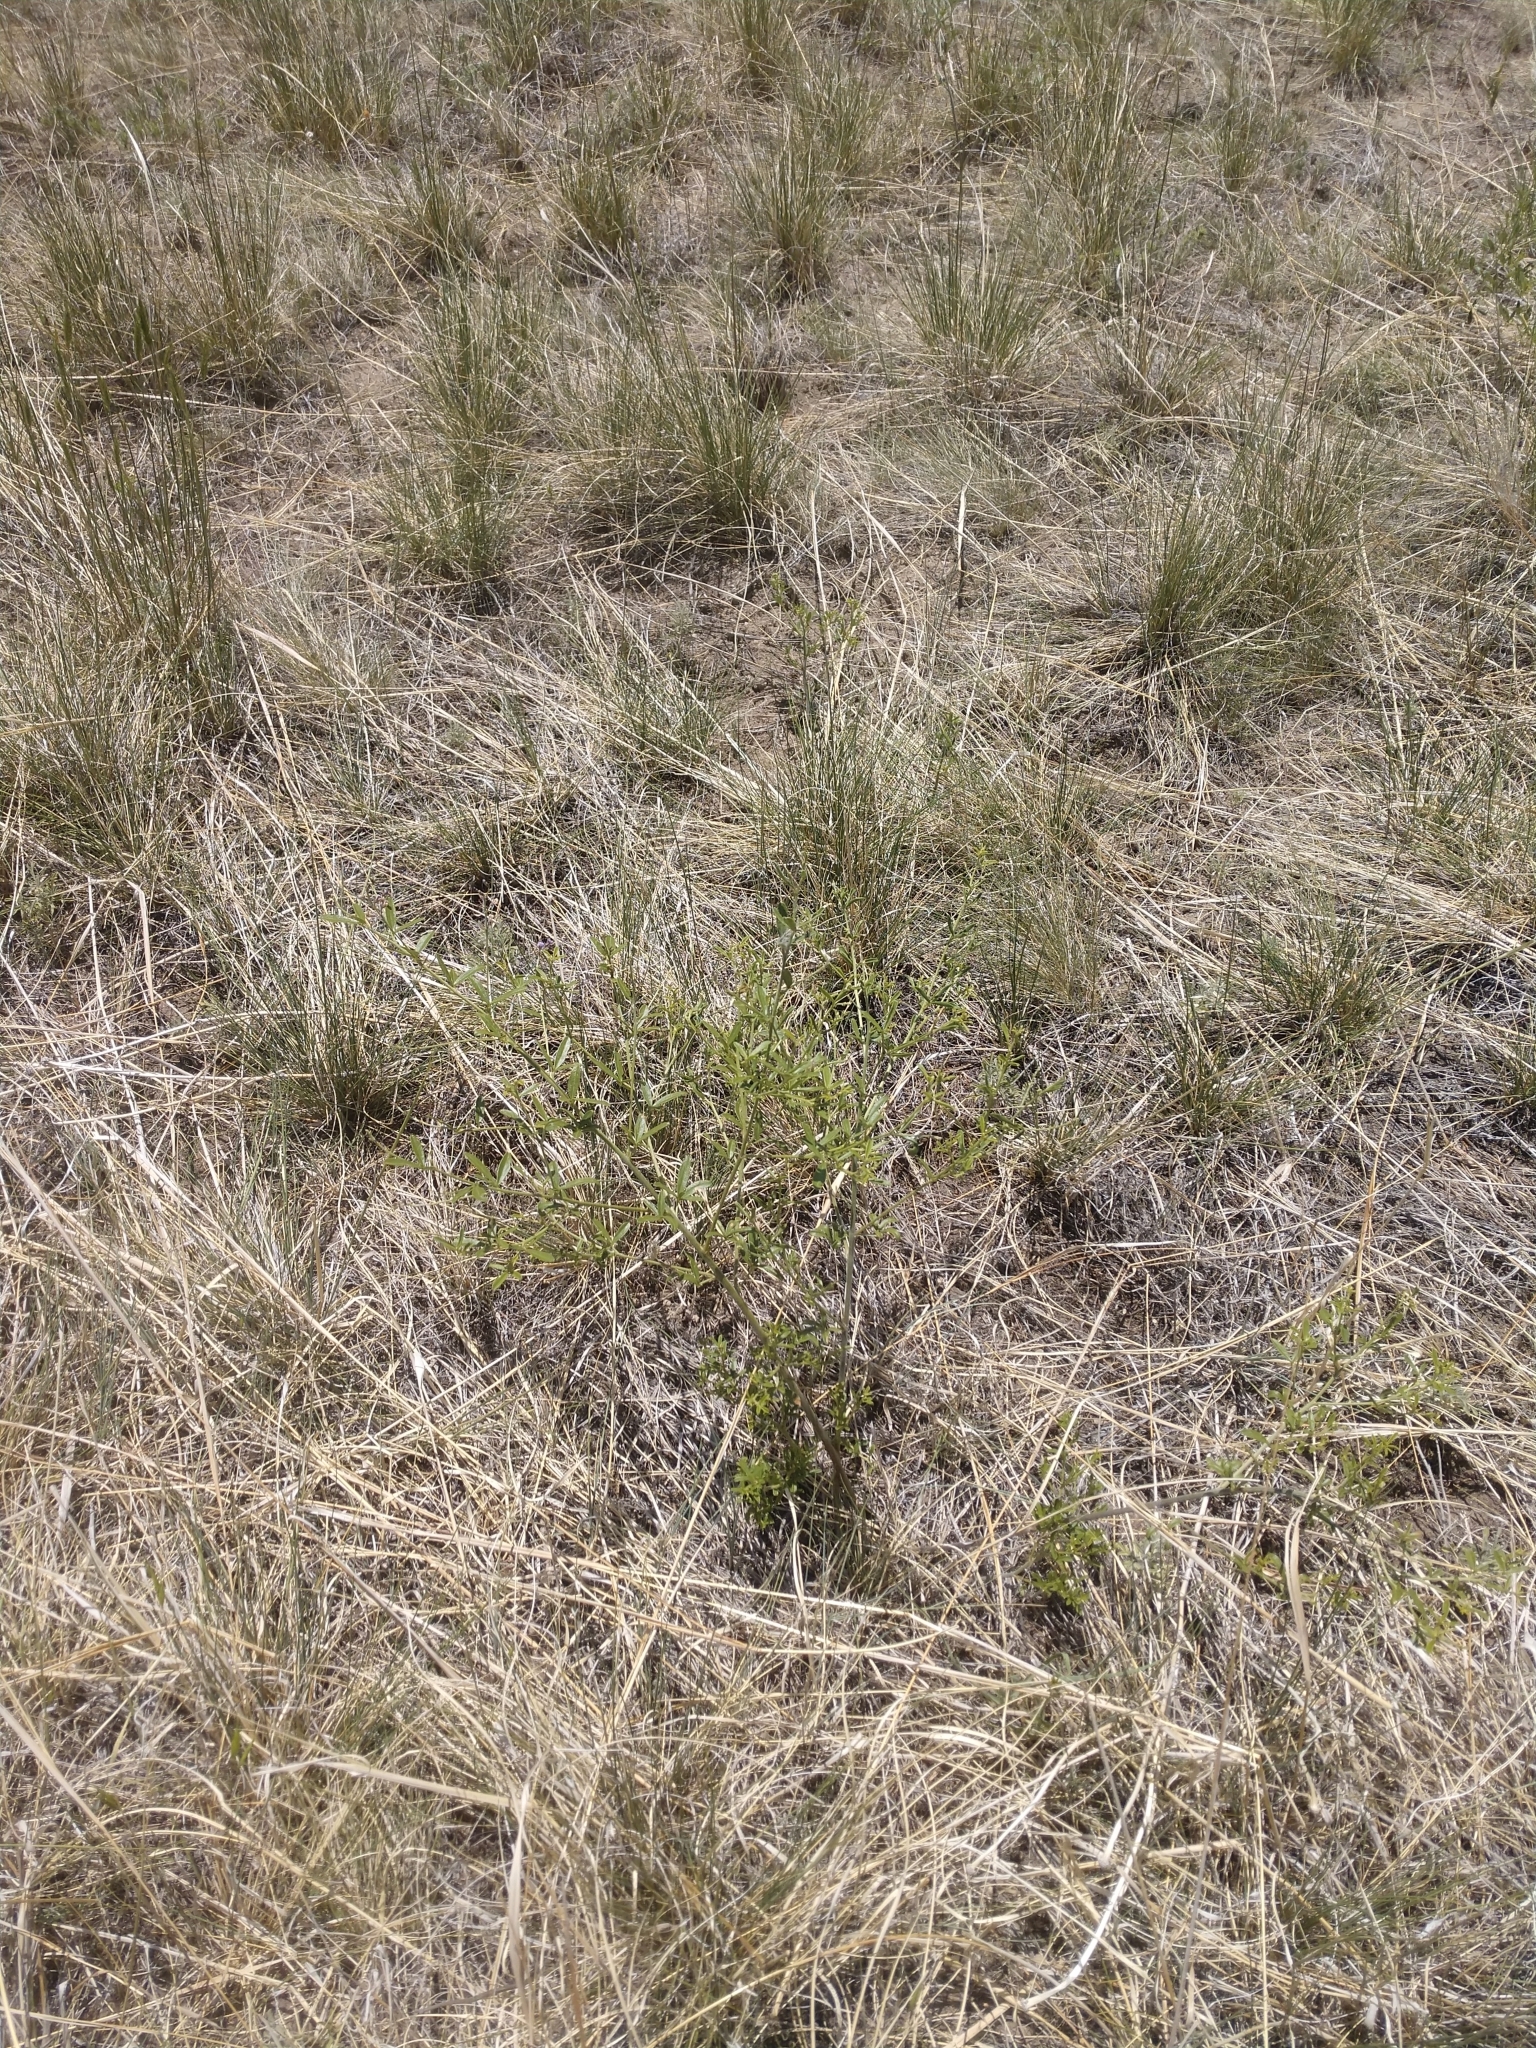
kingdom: Plantae
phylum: Tracheophyta
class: Magnoliopsida
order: Fabales
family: Fabaceae
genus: Pediomelum
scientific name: Pediomelum tenuiflorum
